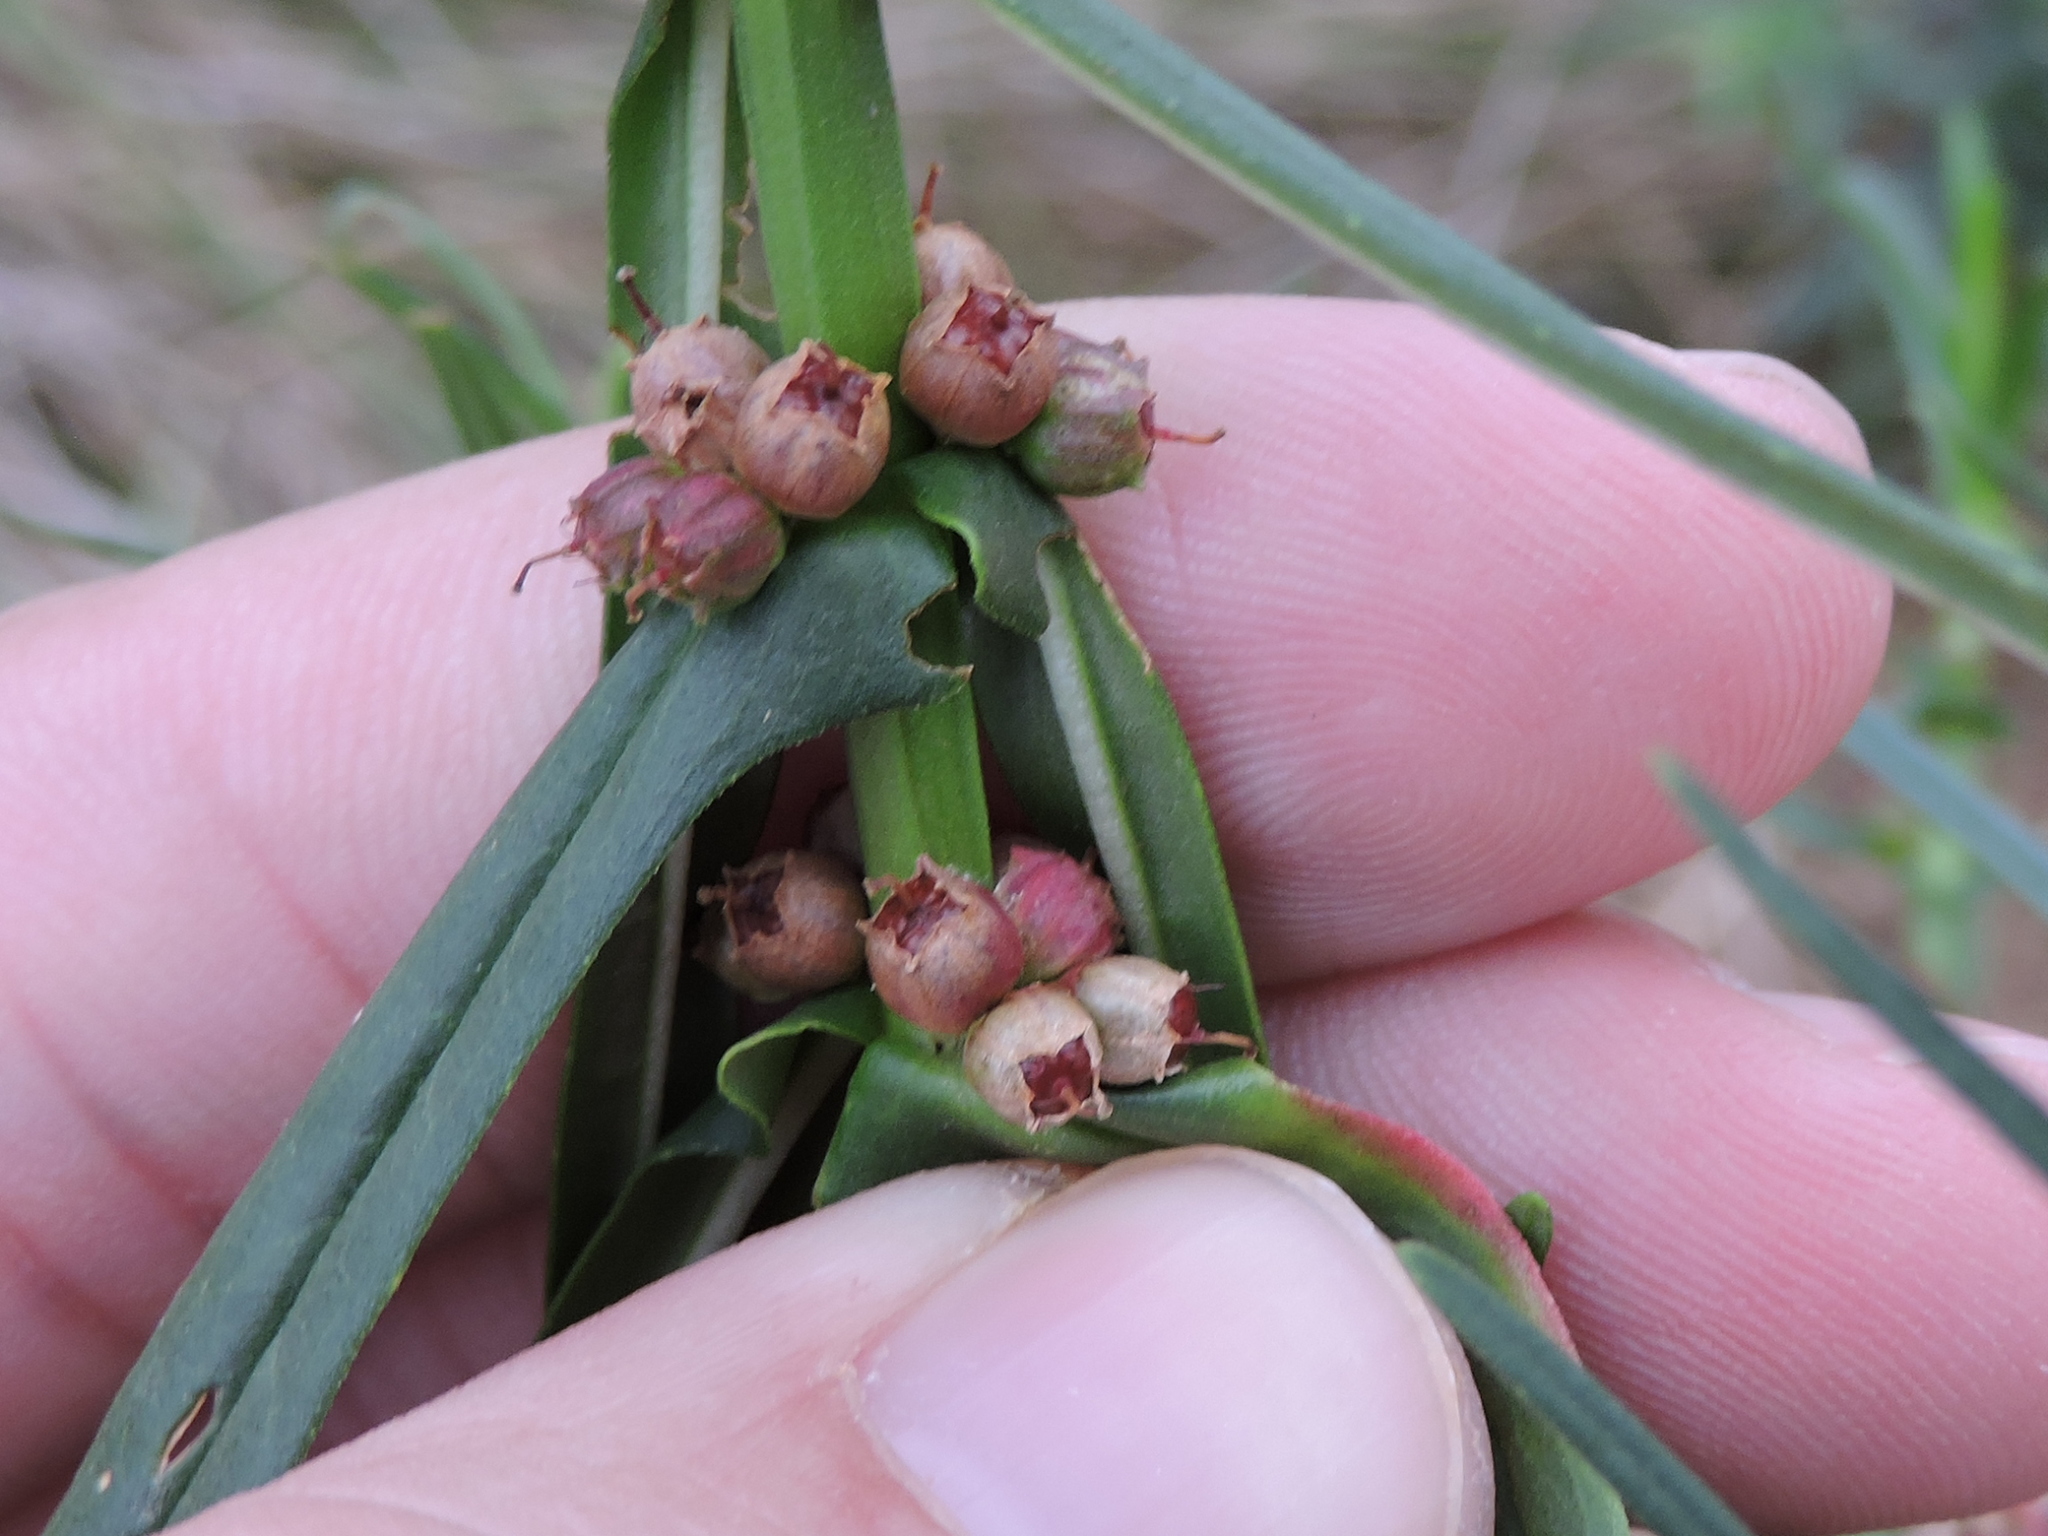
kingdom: Plantae
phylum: Tracheophyta
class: Magnoliopsida
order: Myrtales
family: Lythraceae
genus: Ammannia
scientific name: Ammannia coccinea
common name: Valley redstem
